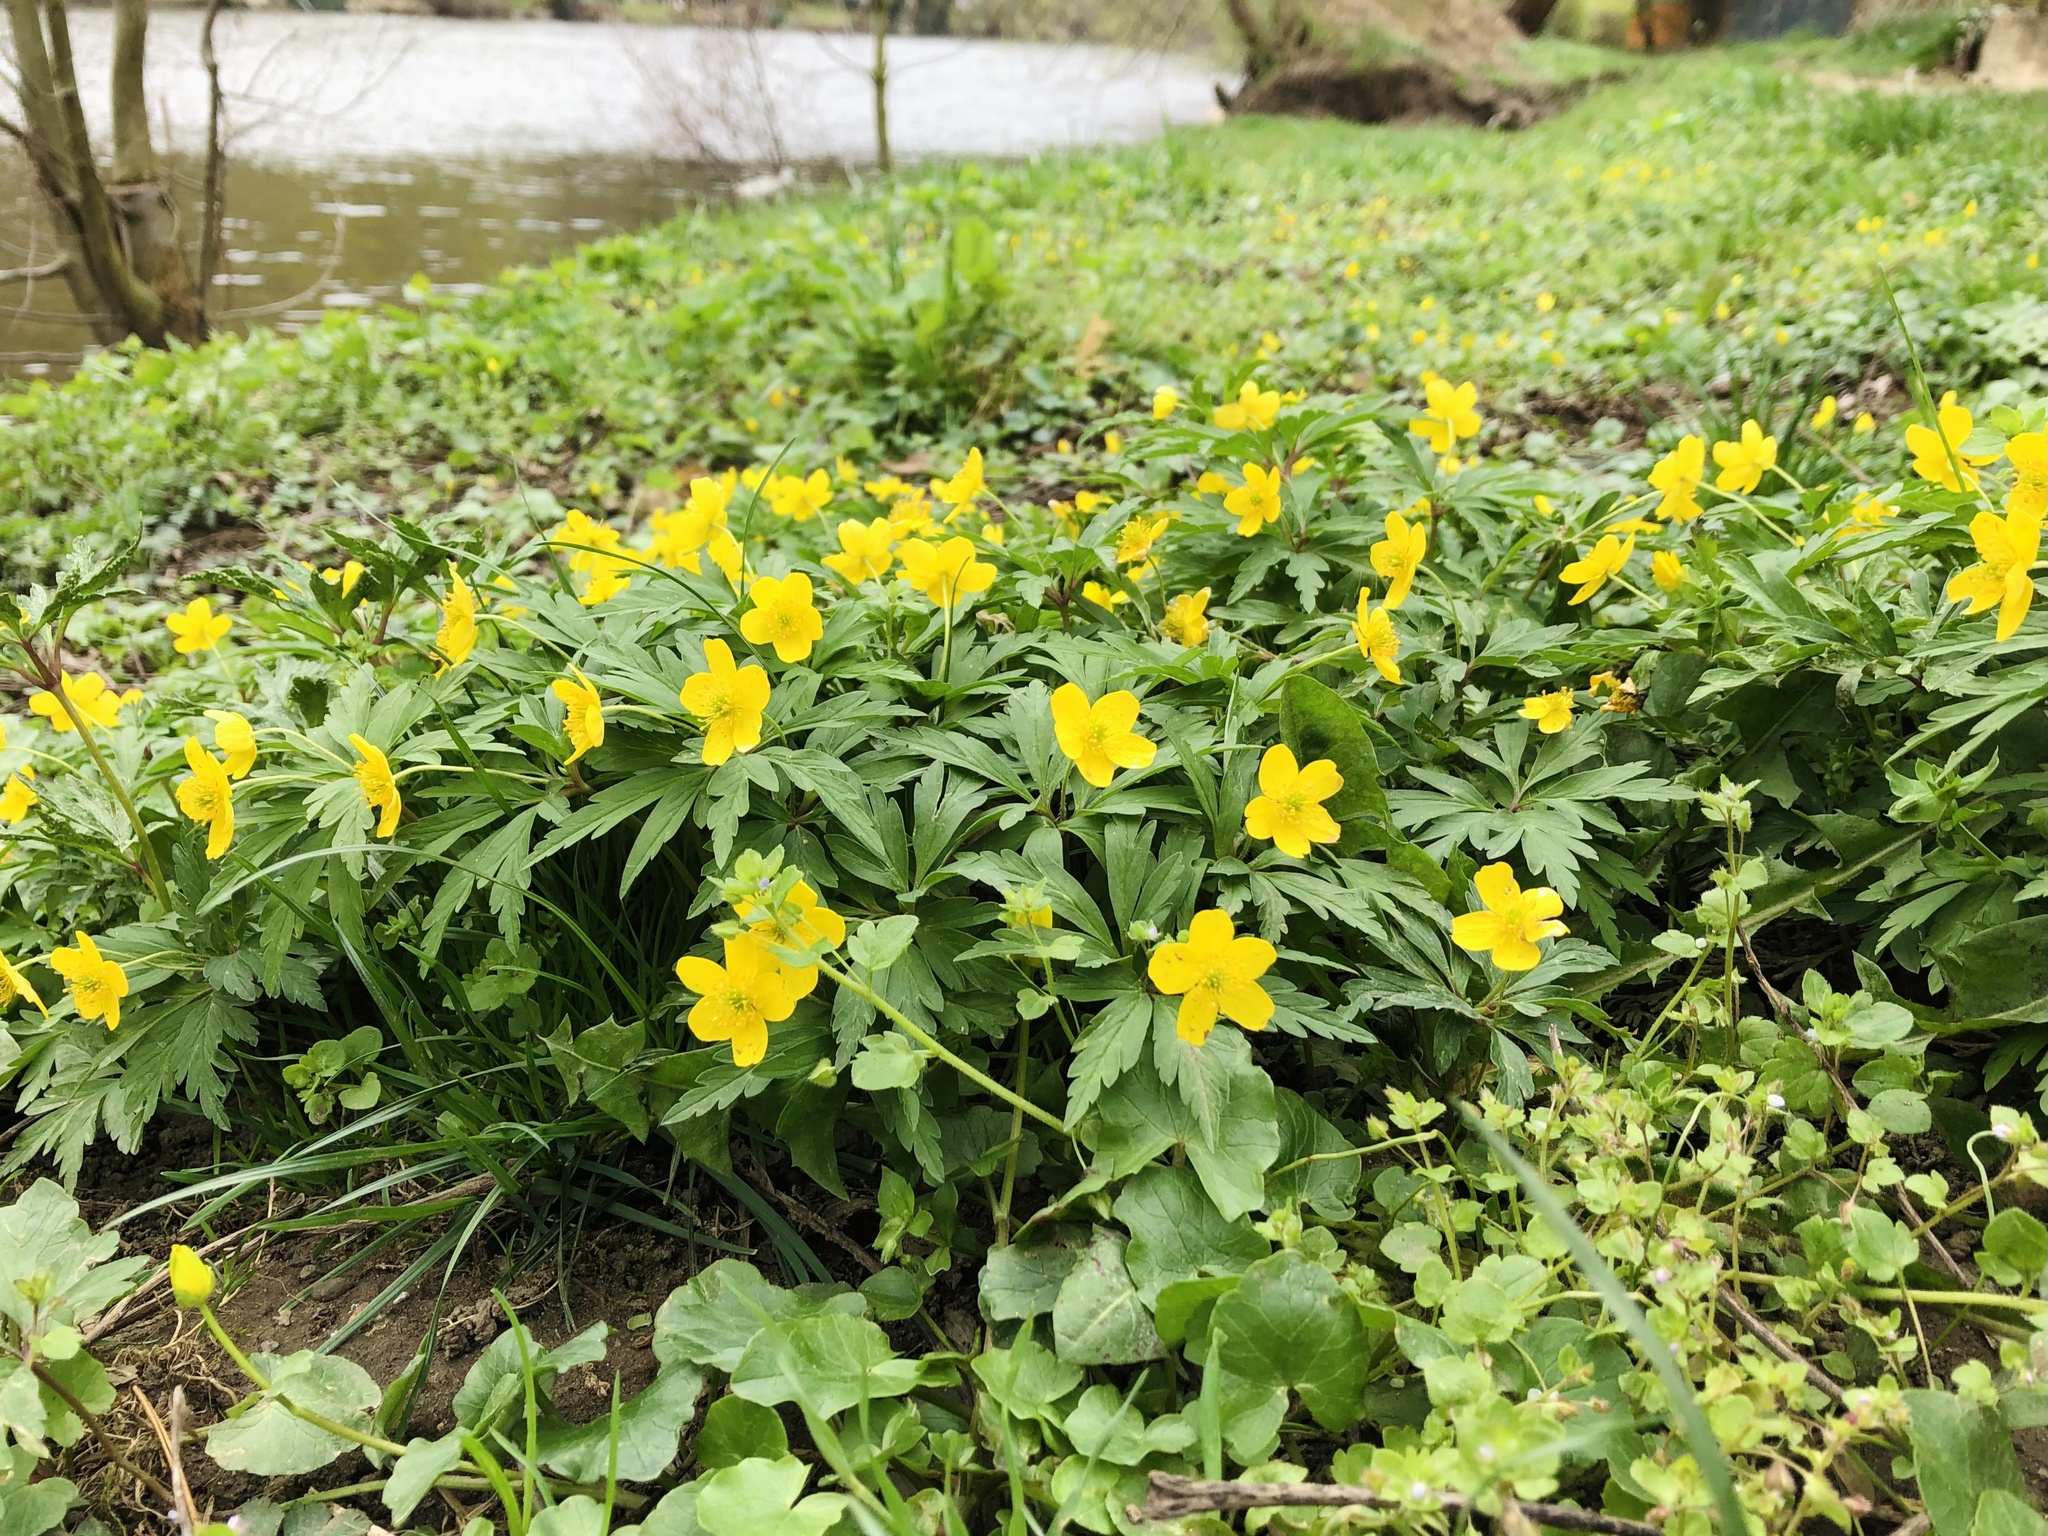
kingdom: Plantae
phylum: Tracheophyta
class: Magnoliopsida
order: Ranunculales
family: Ranunculaceae
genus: Anemone
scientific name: Anemone ranunculoides
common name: Yellow anemone
